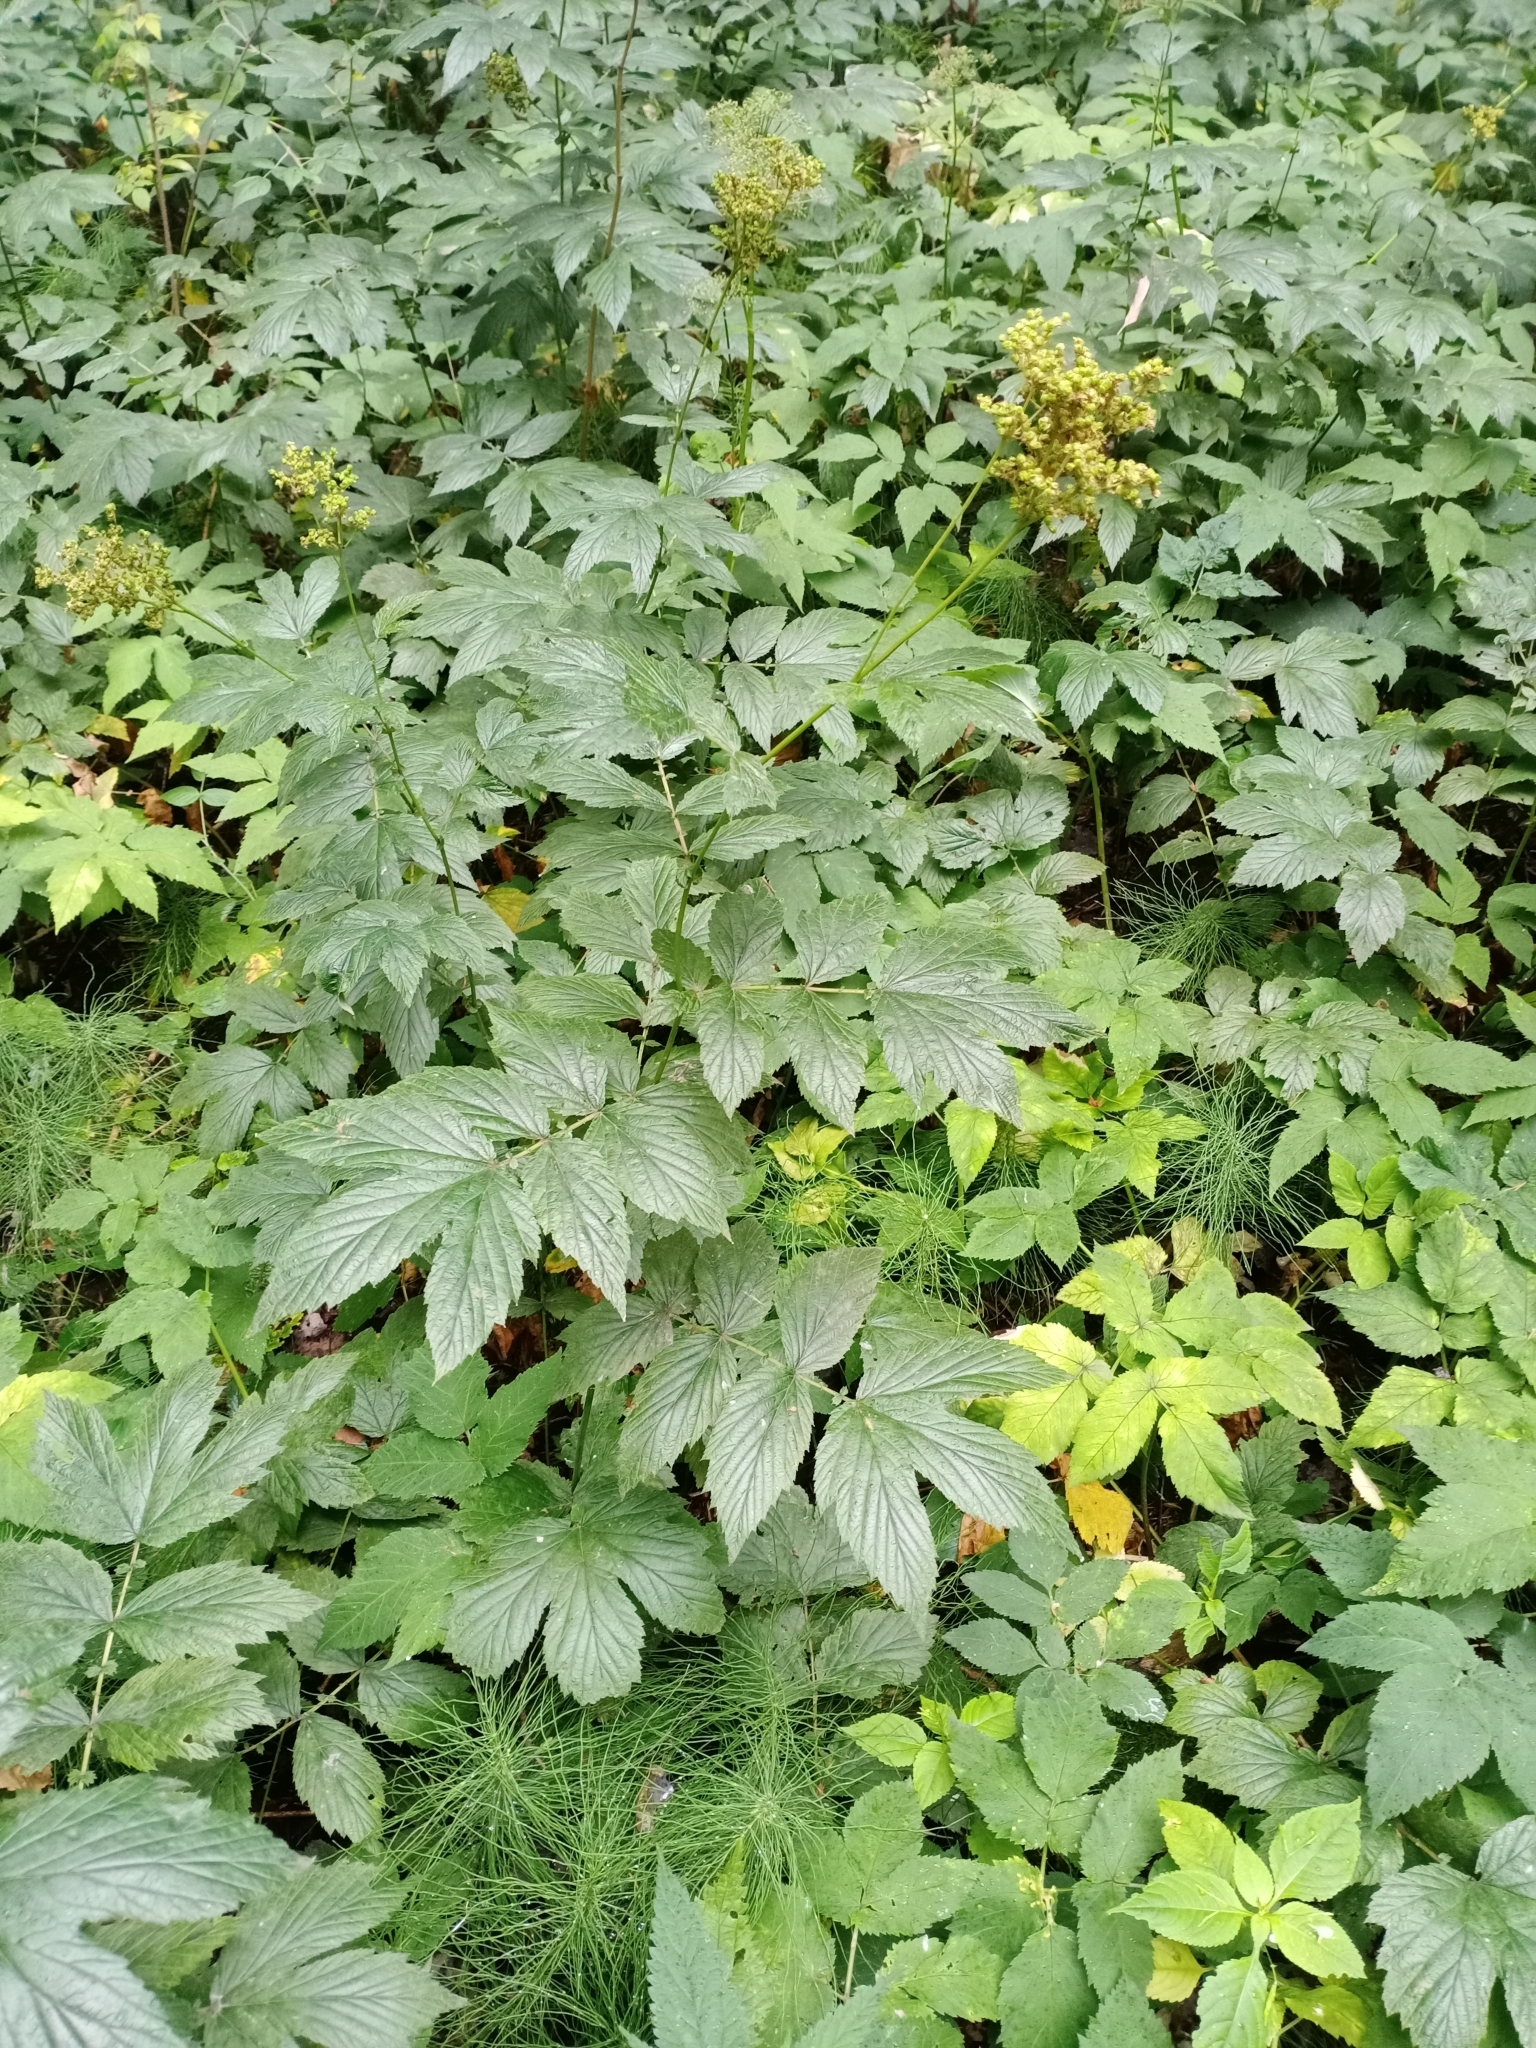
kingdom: Plantae
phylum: Tracheophyta
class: Magnoliopsida
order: Rosales
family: Rosaceae
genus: Filipendula
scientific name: Filipendula ulmaria
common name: Meadowsweet
